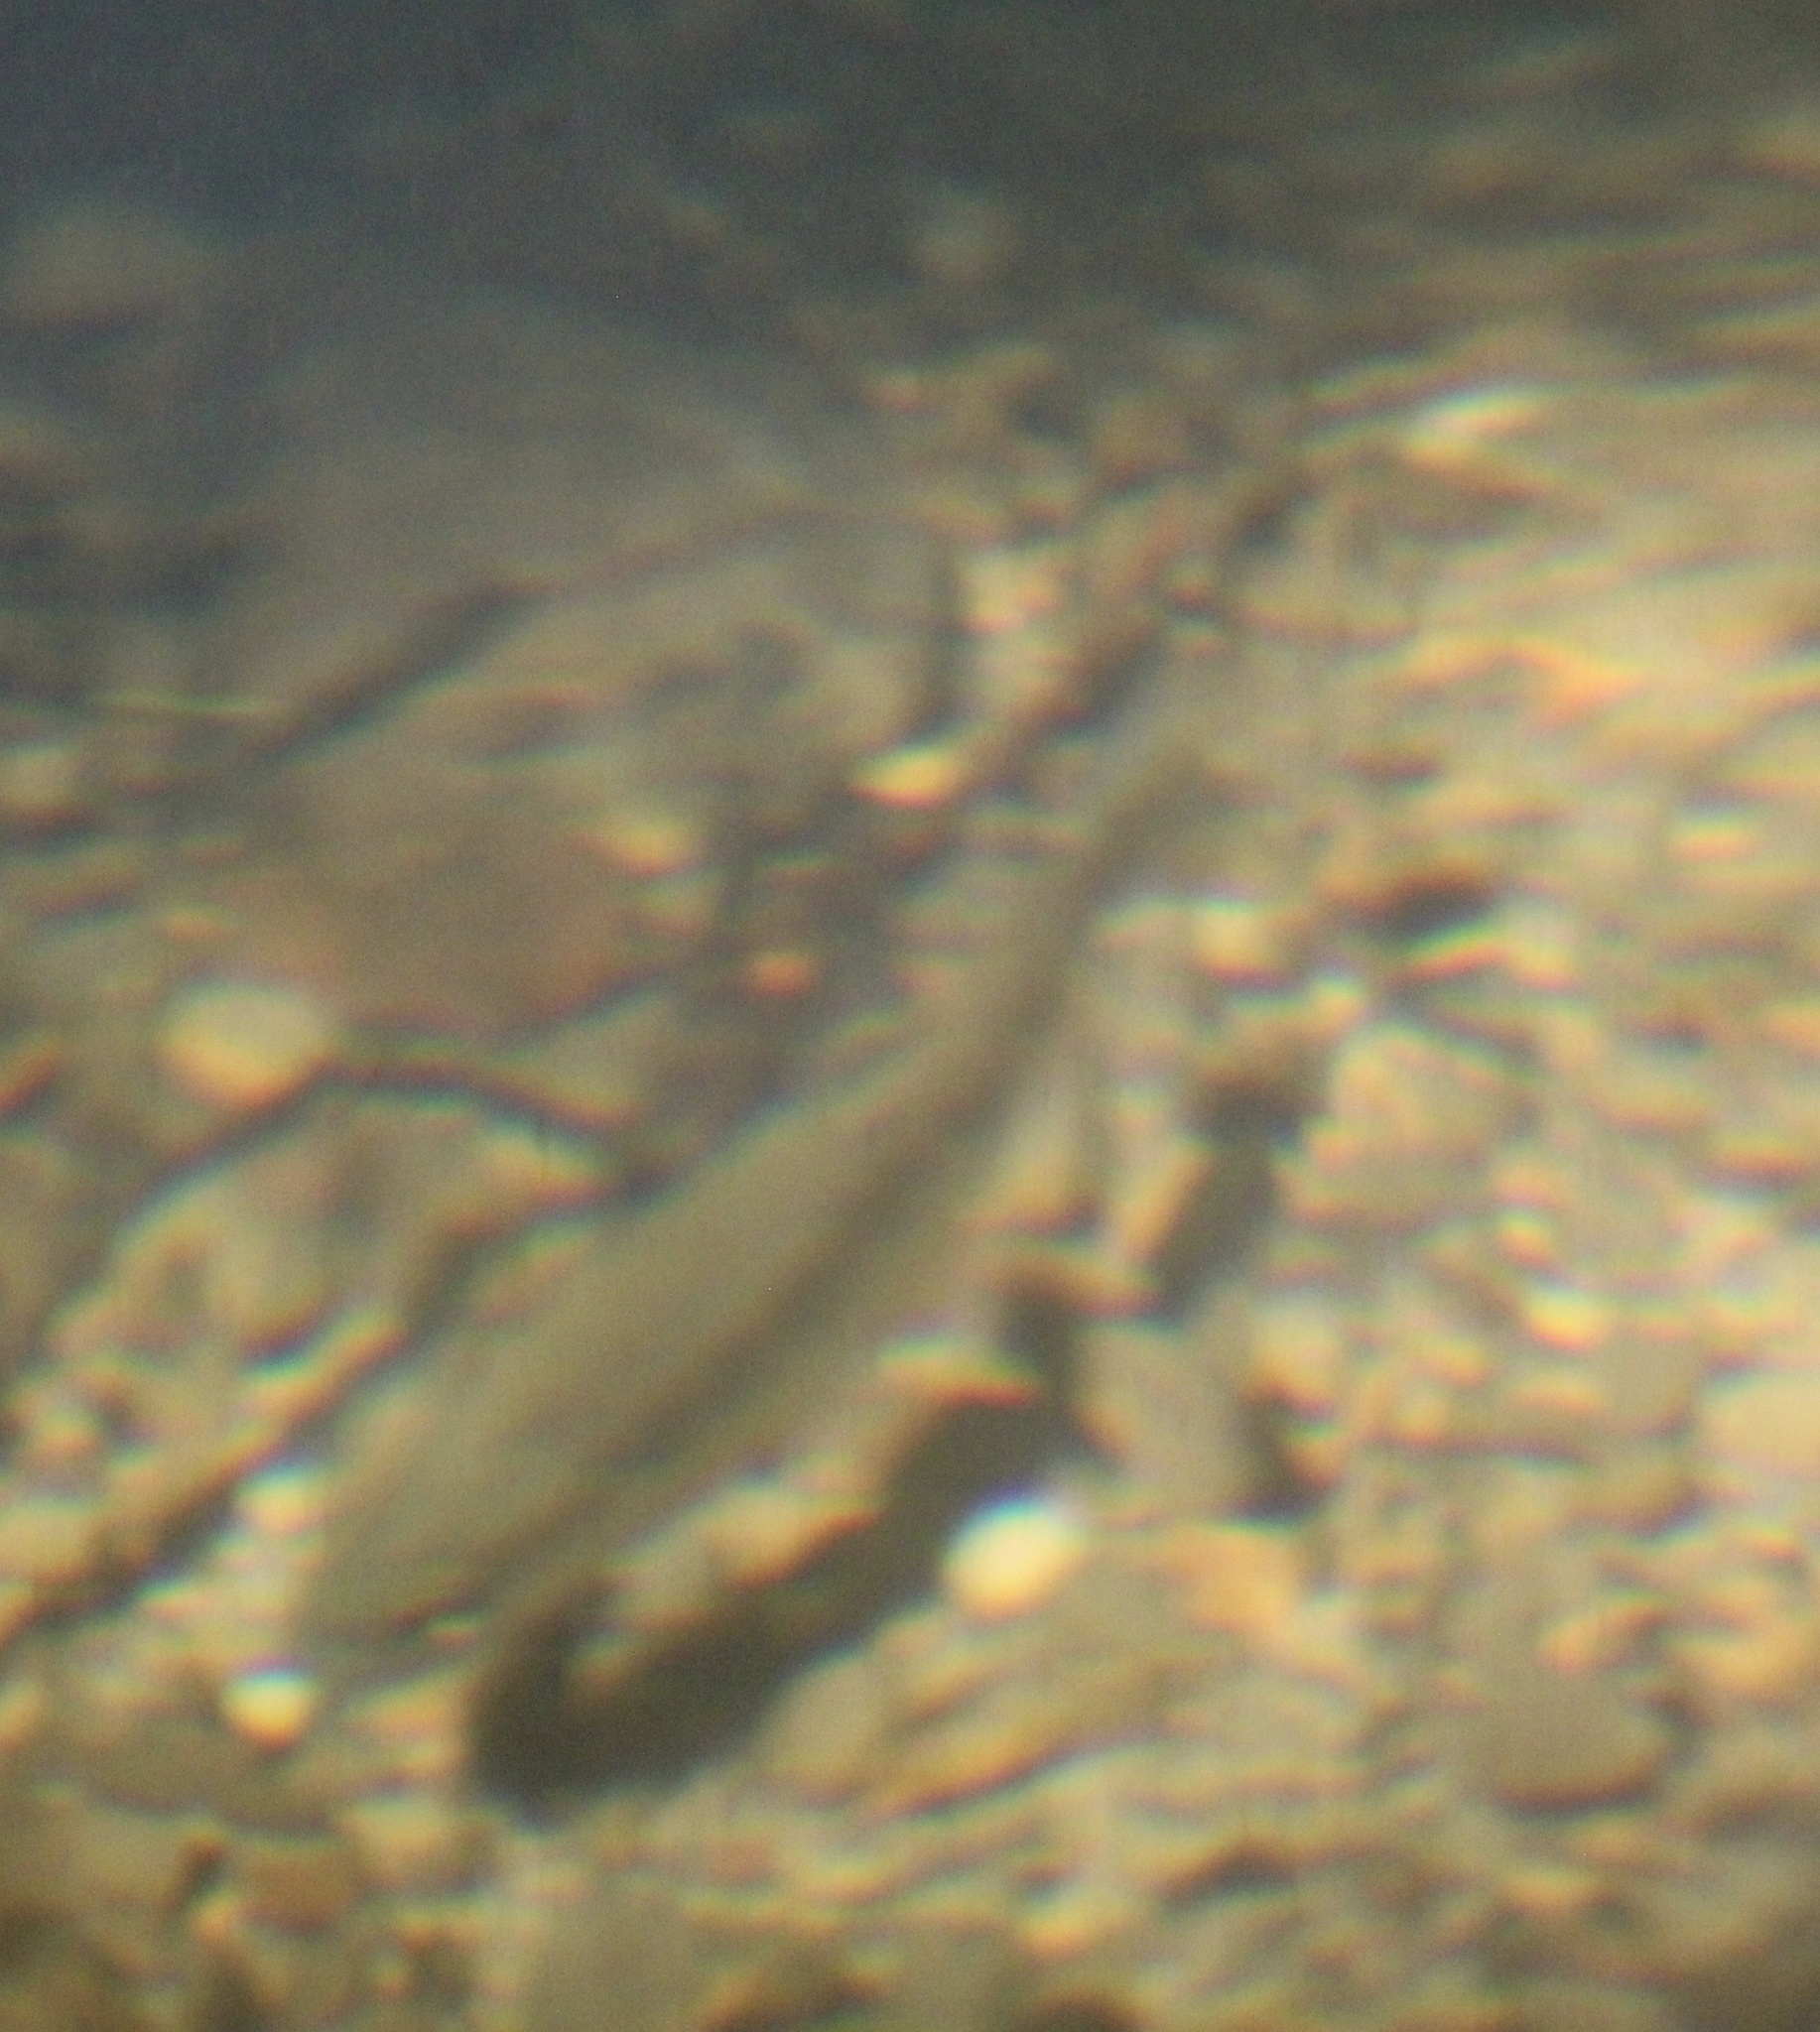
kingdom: Animalia
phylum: Chordata
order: Salmoniformes
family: Salmonidae
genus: Oncorhynchus
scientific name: Oncorhynchus mykiss
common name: Rainbow trout
